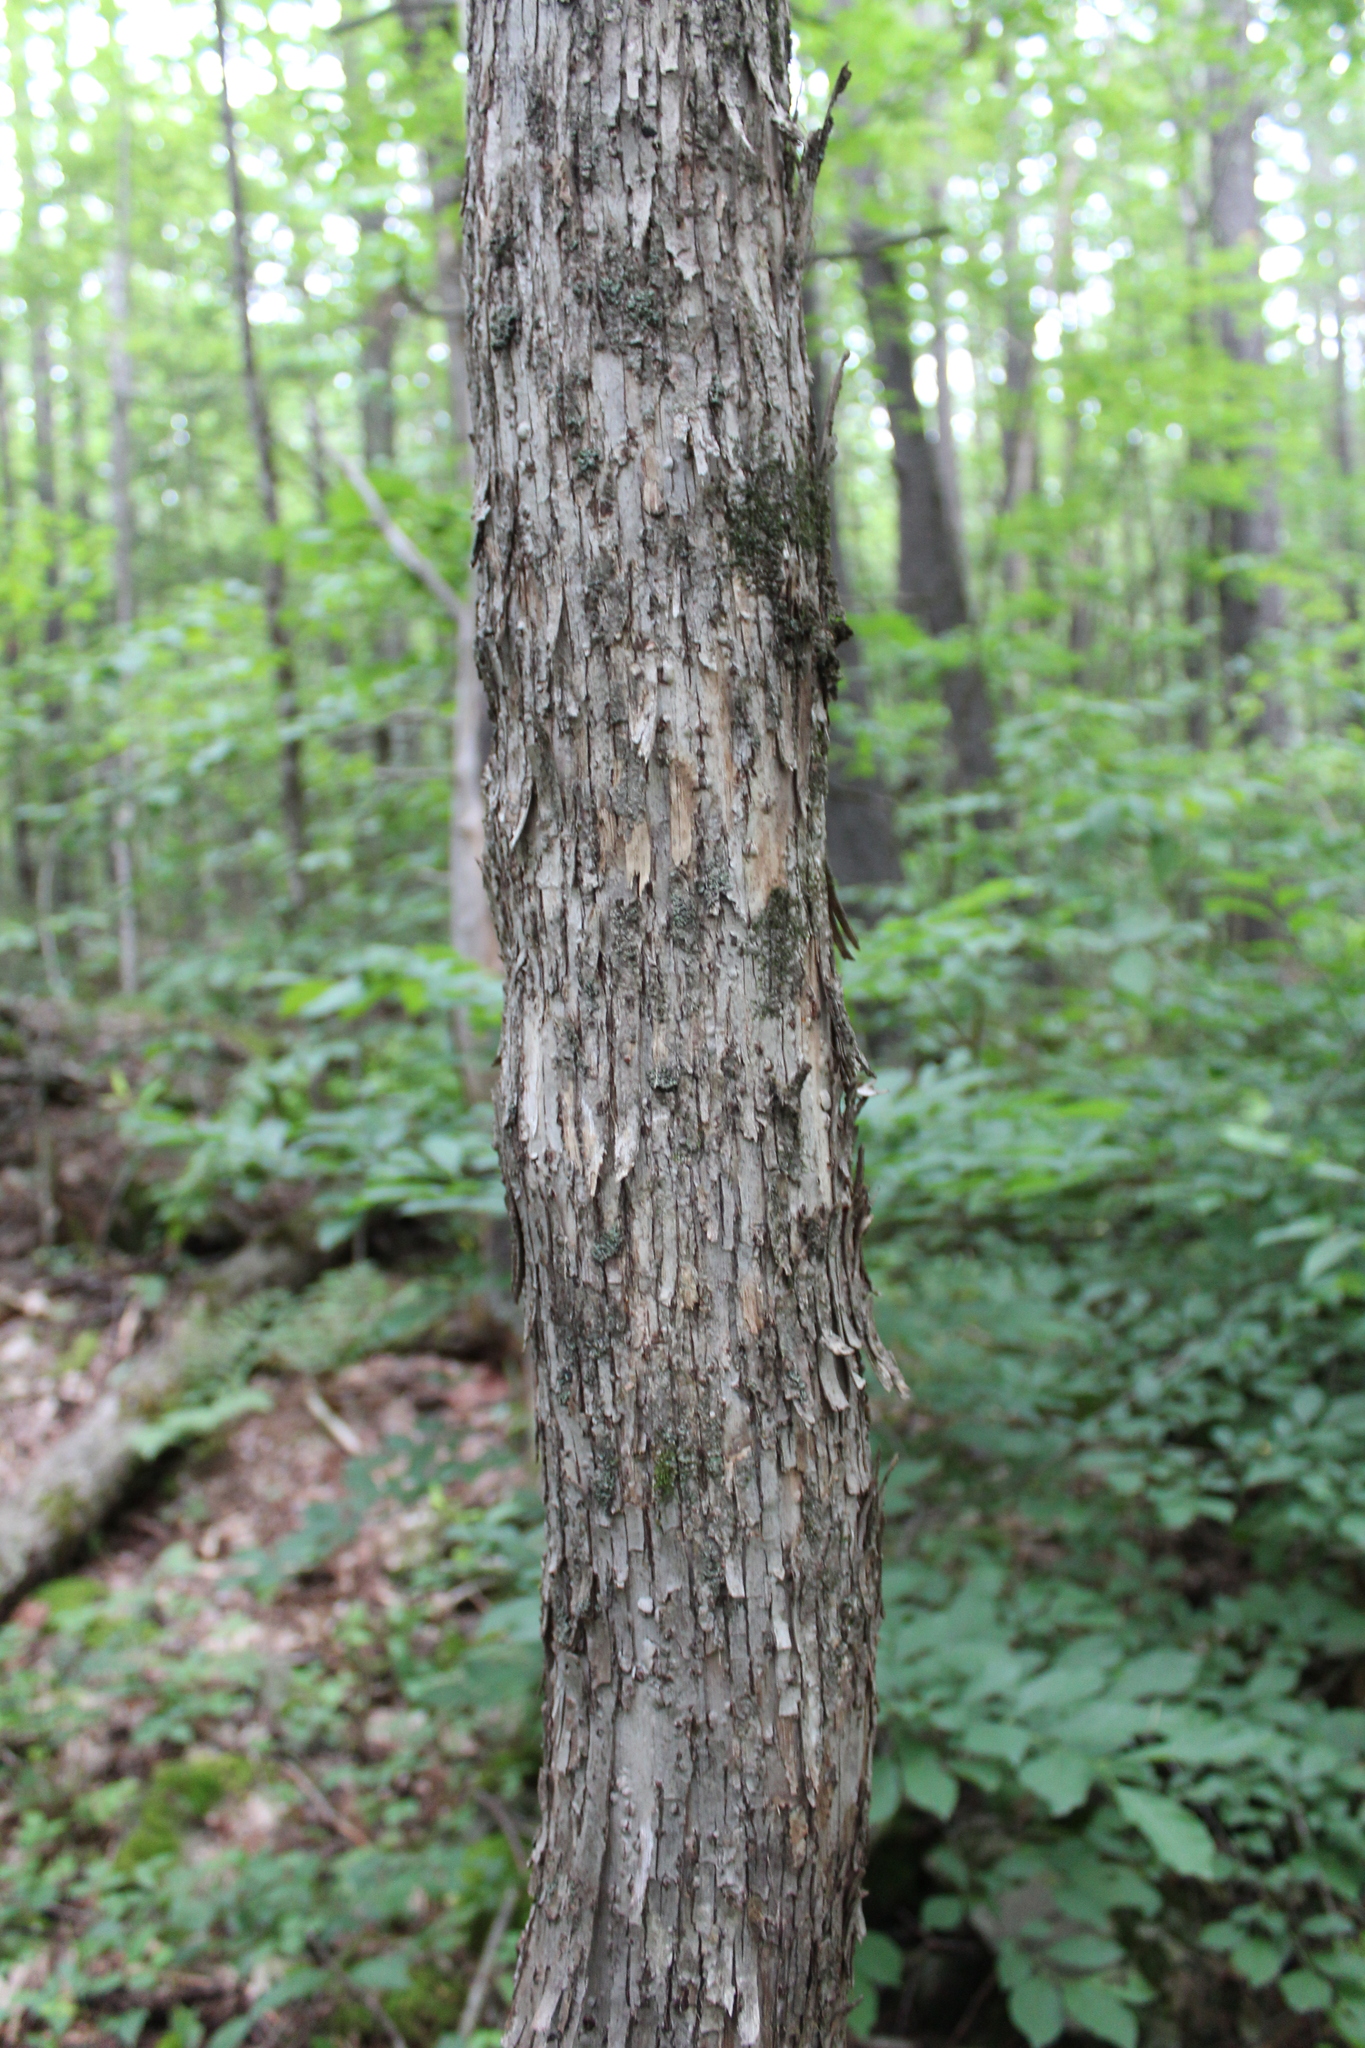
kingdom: Plantae
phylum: Tracheophyta
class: Magnoliopsida
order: Fagales
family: Betulaceae
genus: Ostrya
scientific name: Ostrya virginiana
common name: Ironwood
